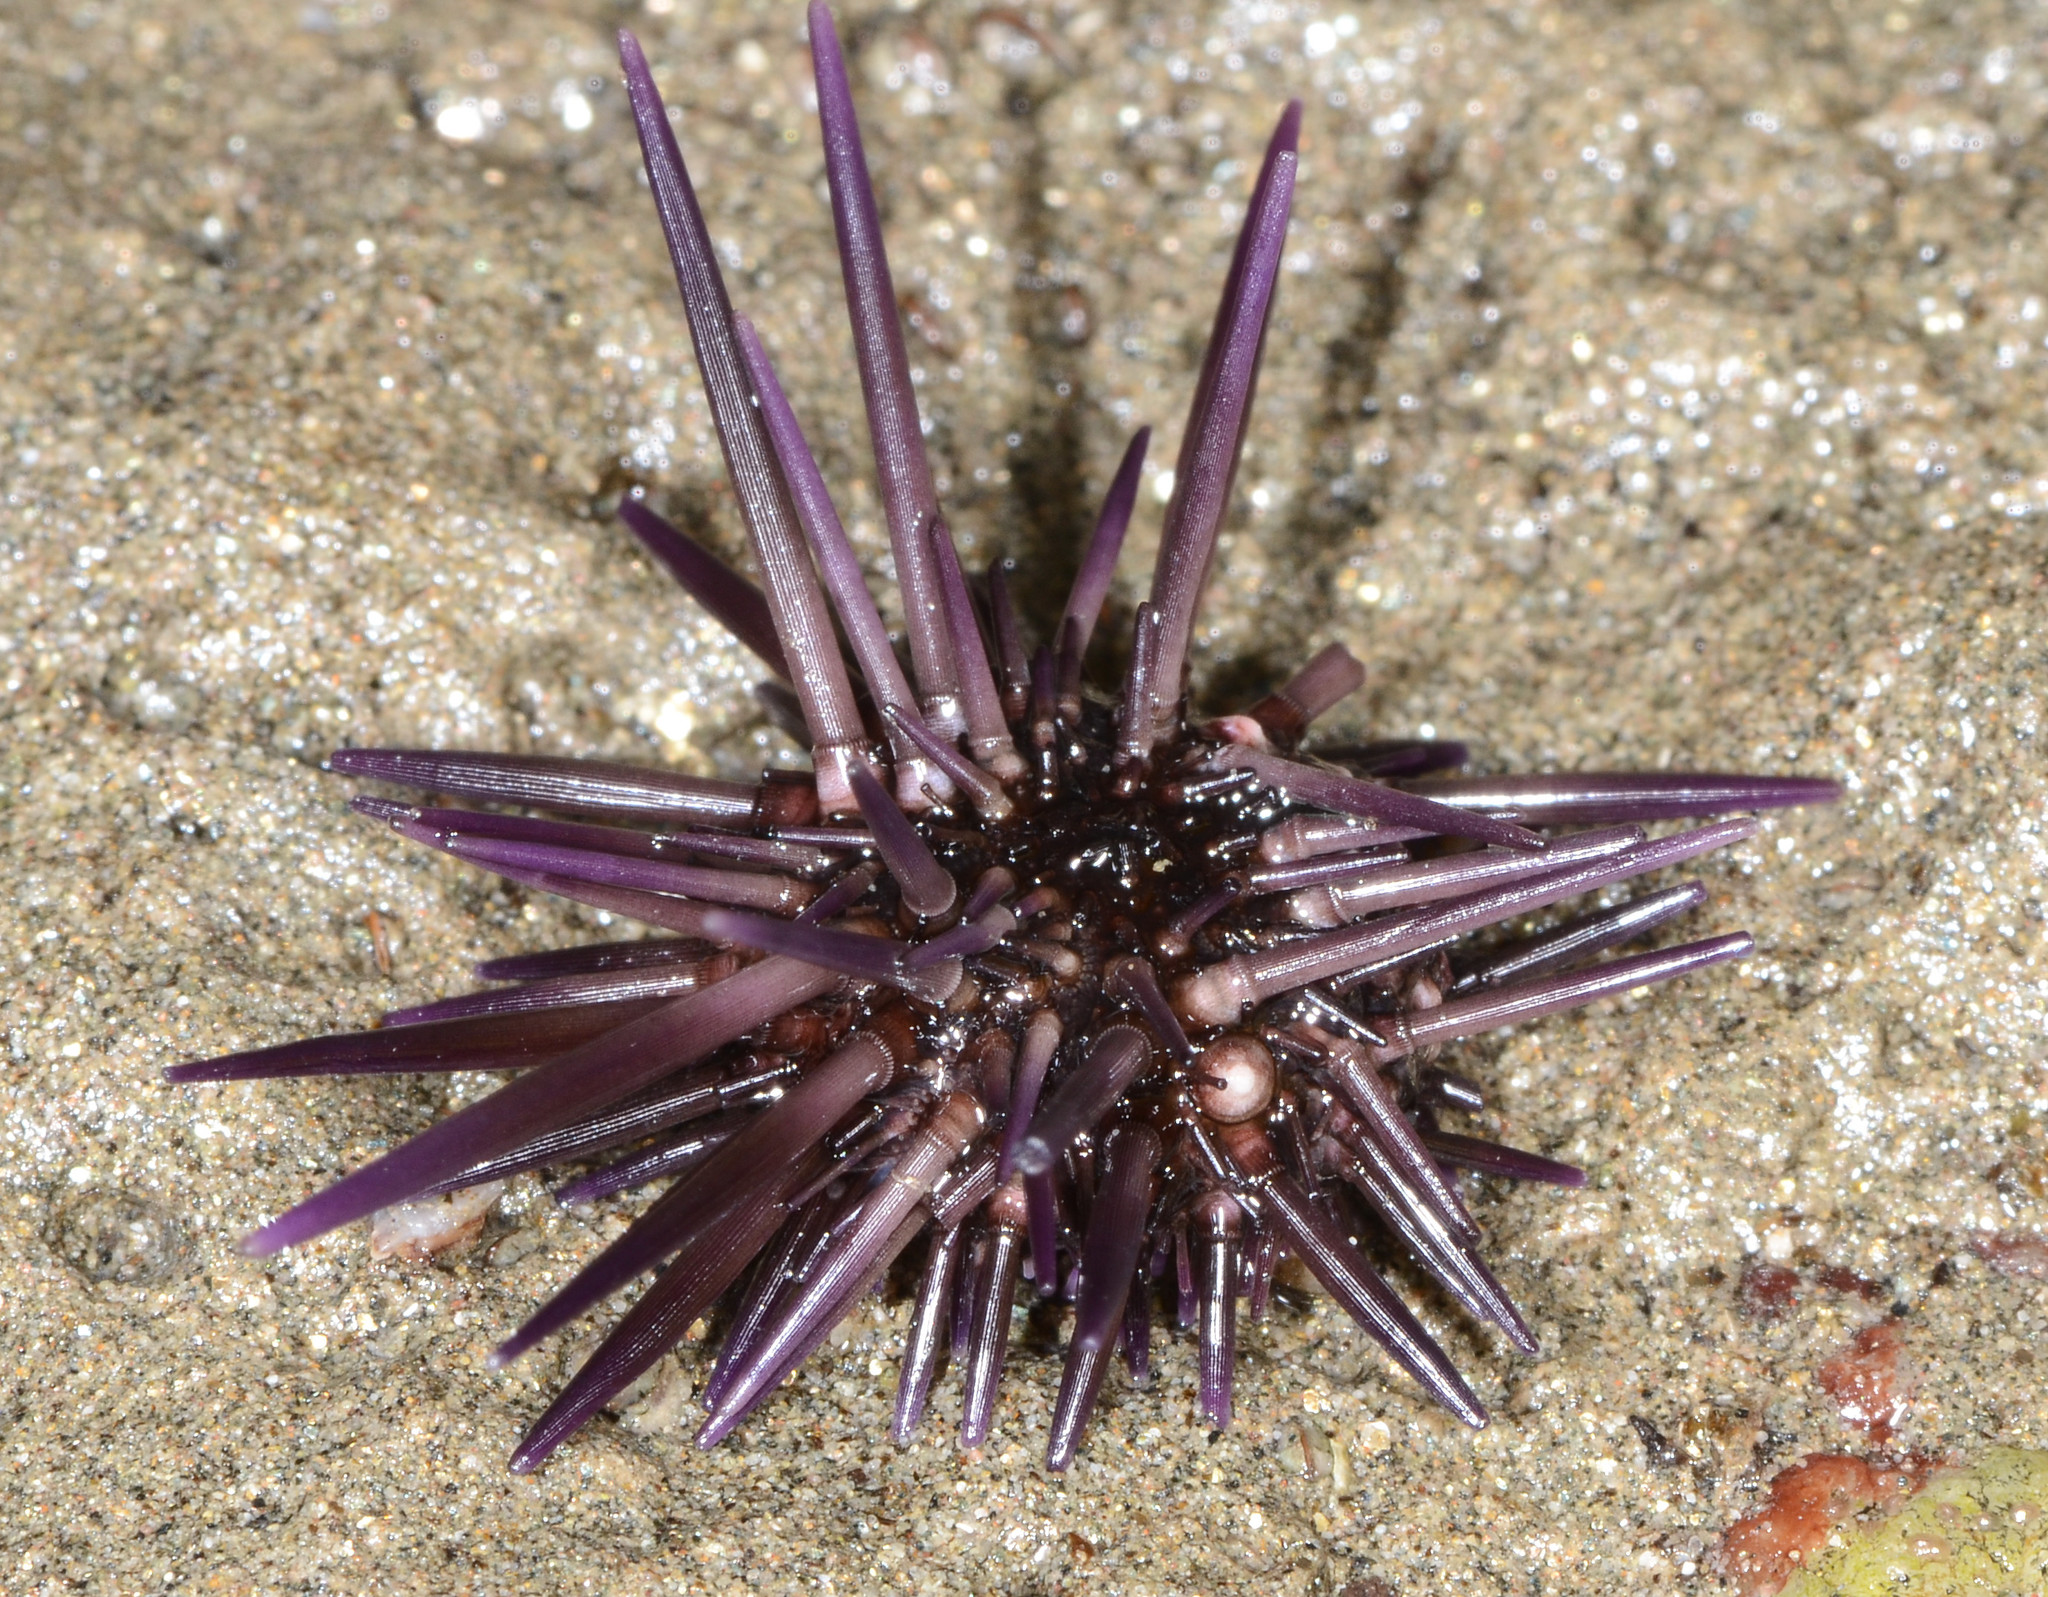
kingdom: Animalia
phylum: Echinodermata
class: Echinoidea
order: Camarodonta
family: Echinometridae
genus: Echinometra
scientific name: Echinometra vanbrunti
